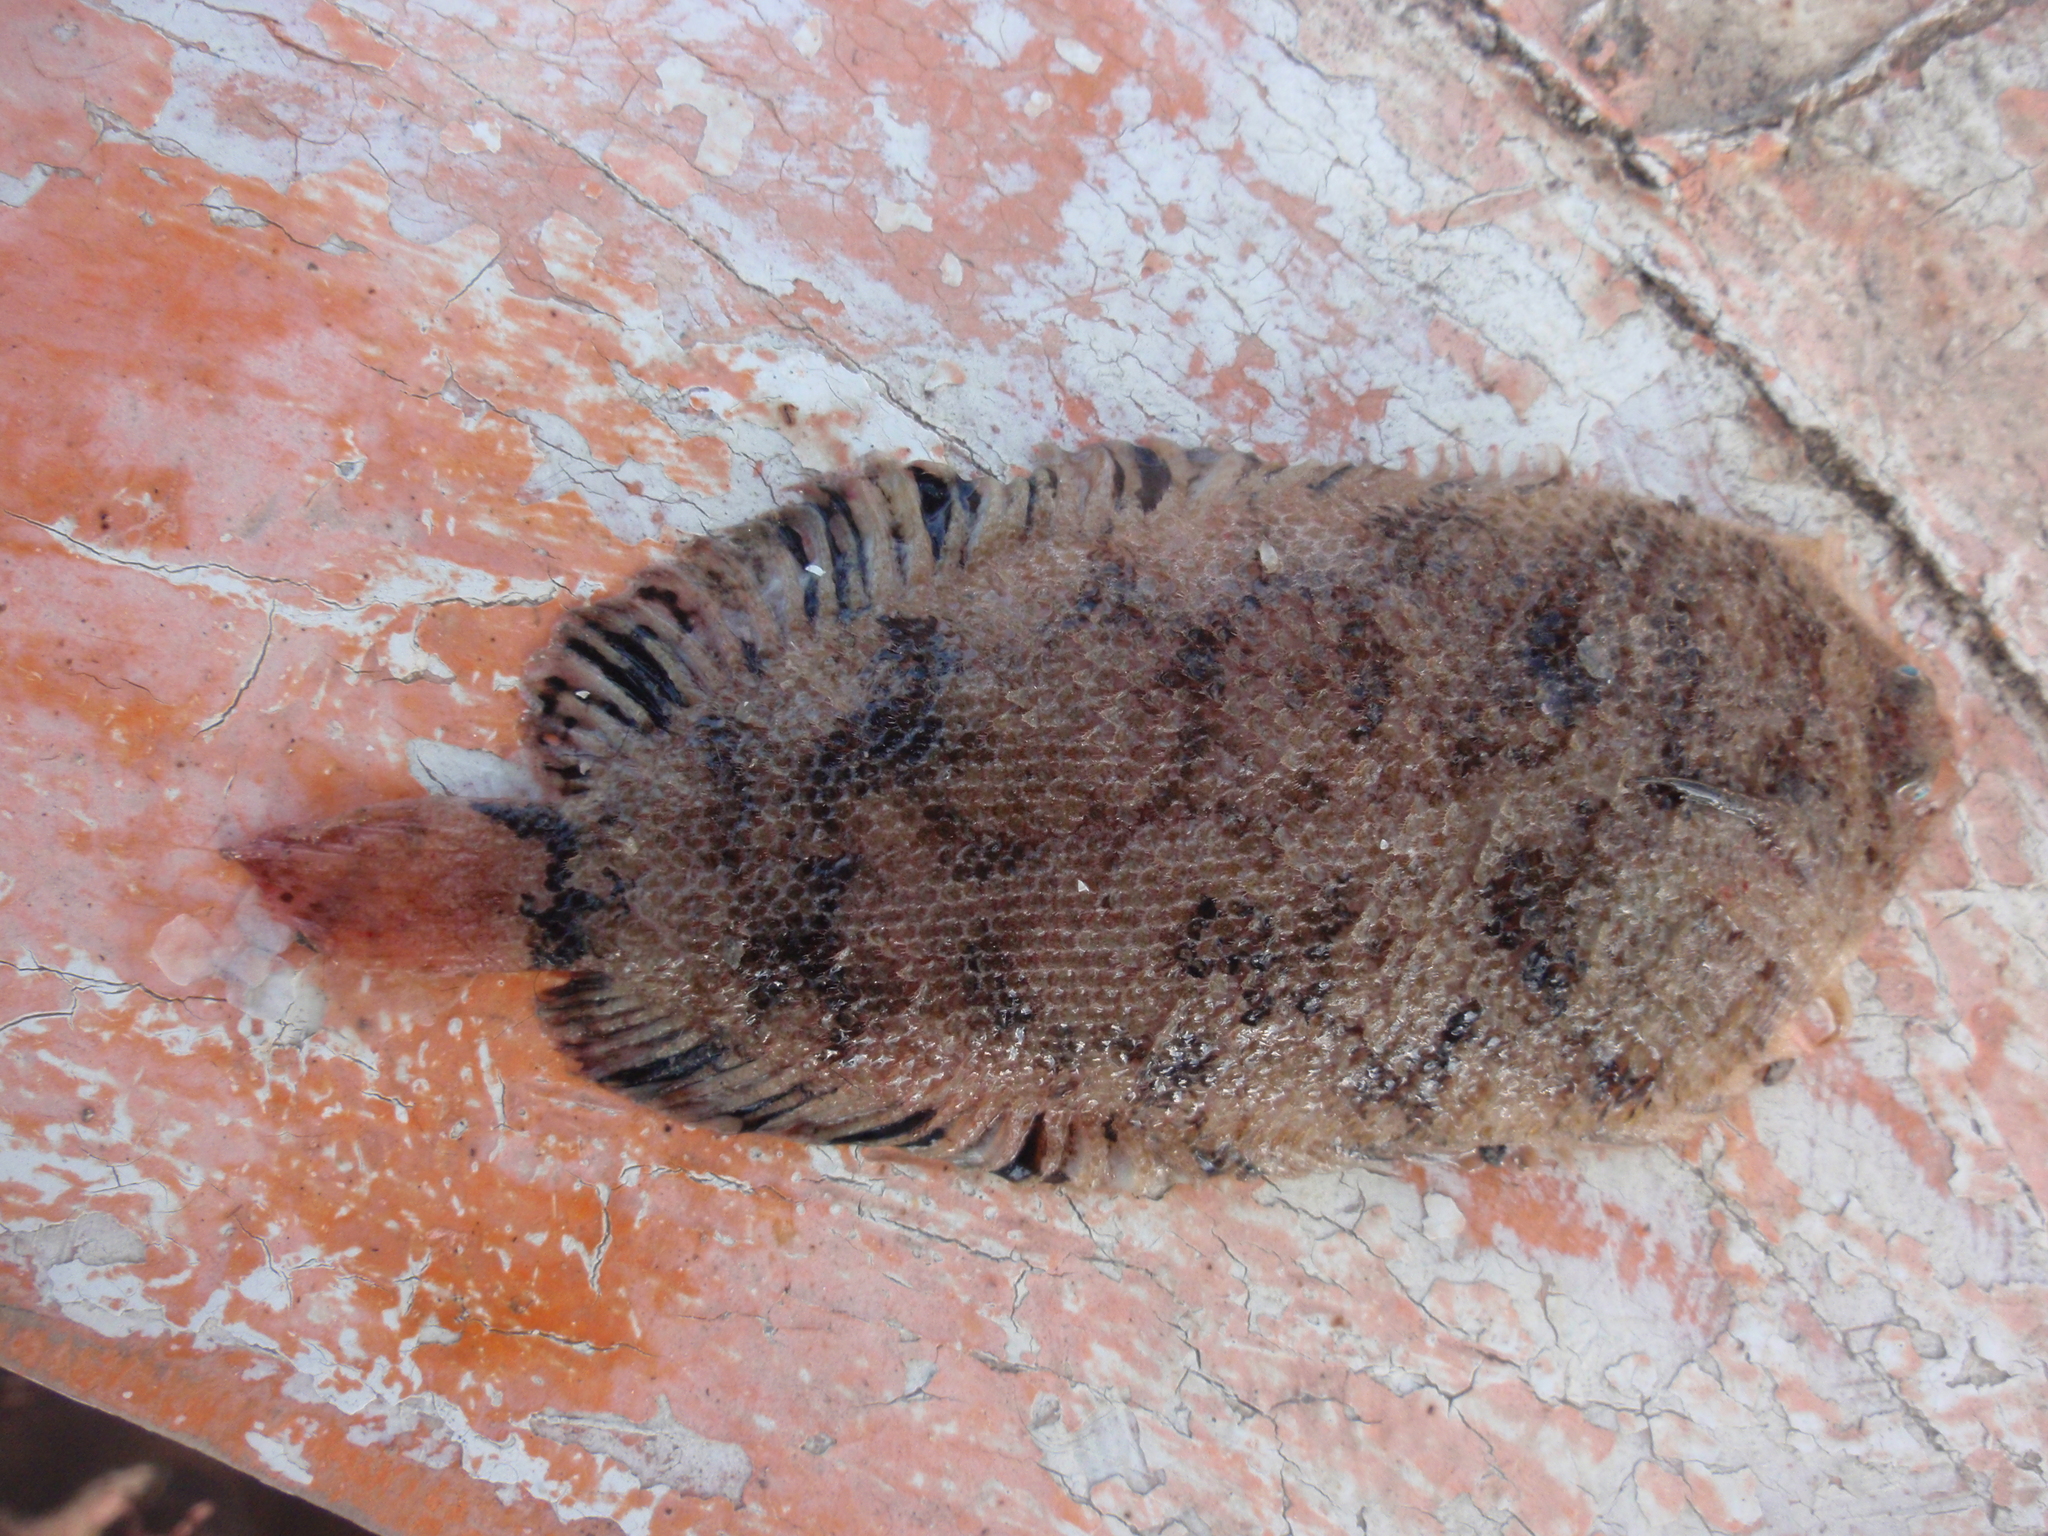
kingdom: Animalia
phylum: Chordata
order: Pleuronectiformes
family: Soleidae
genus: Monochirus
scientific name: Monochirus hispidus
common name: Whiskered sole
